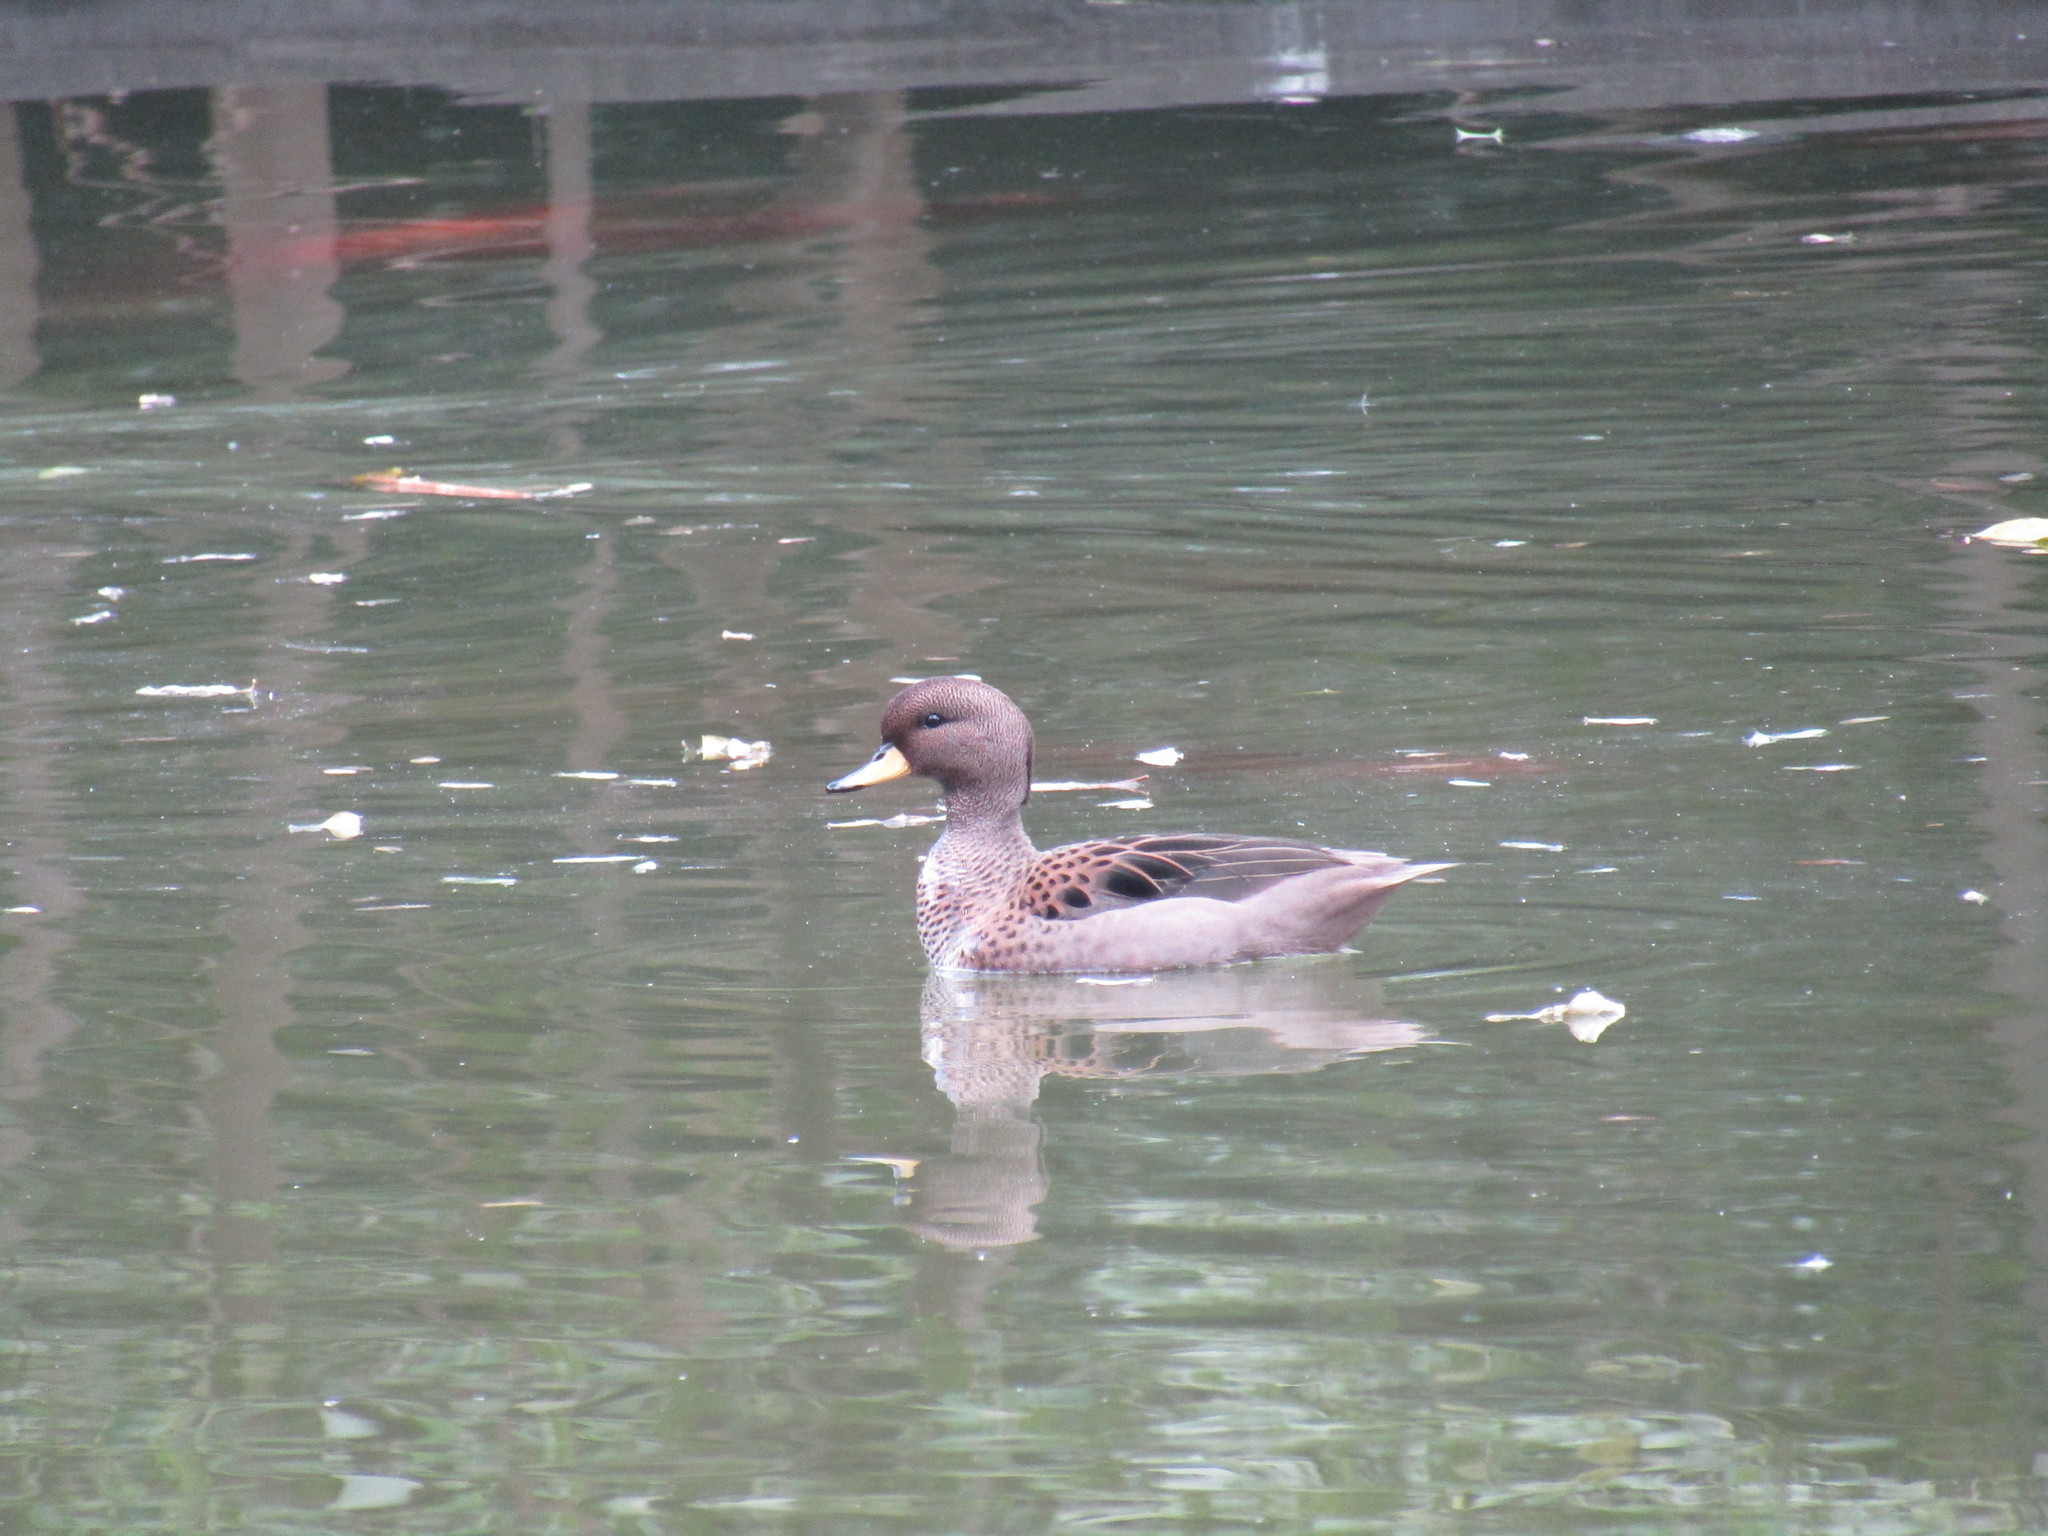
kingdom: Animalia
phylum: Chordata
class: Aves
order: Anseriformes
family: Anatidae
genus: Anas
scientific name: Anas flavirostris
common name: Yellow-billed teal
